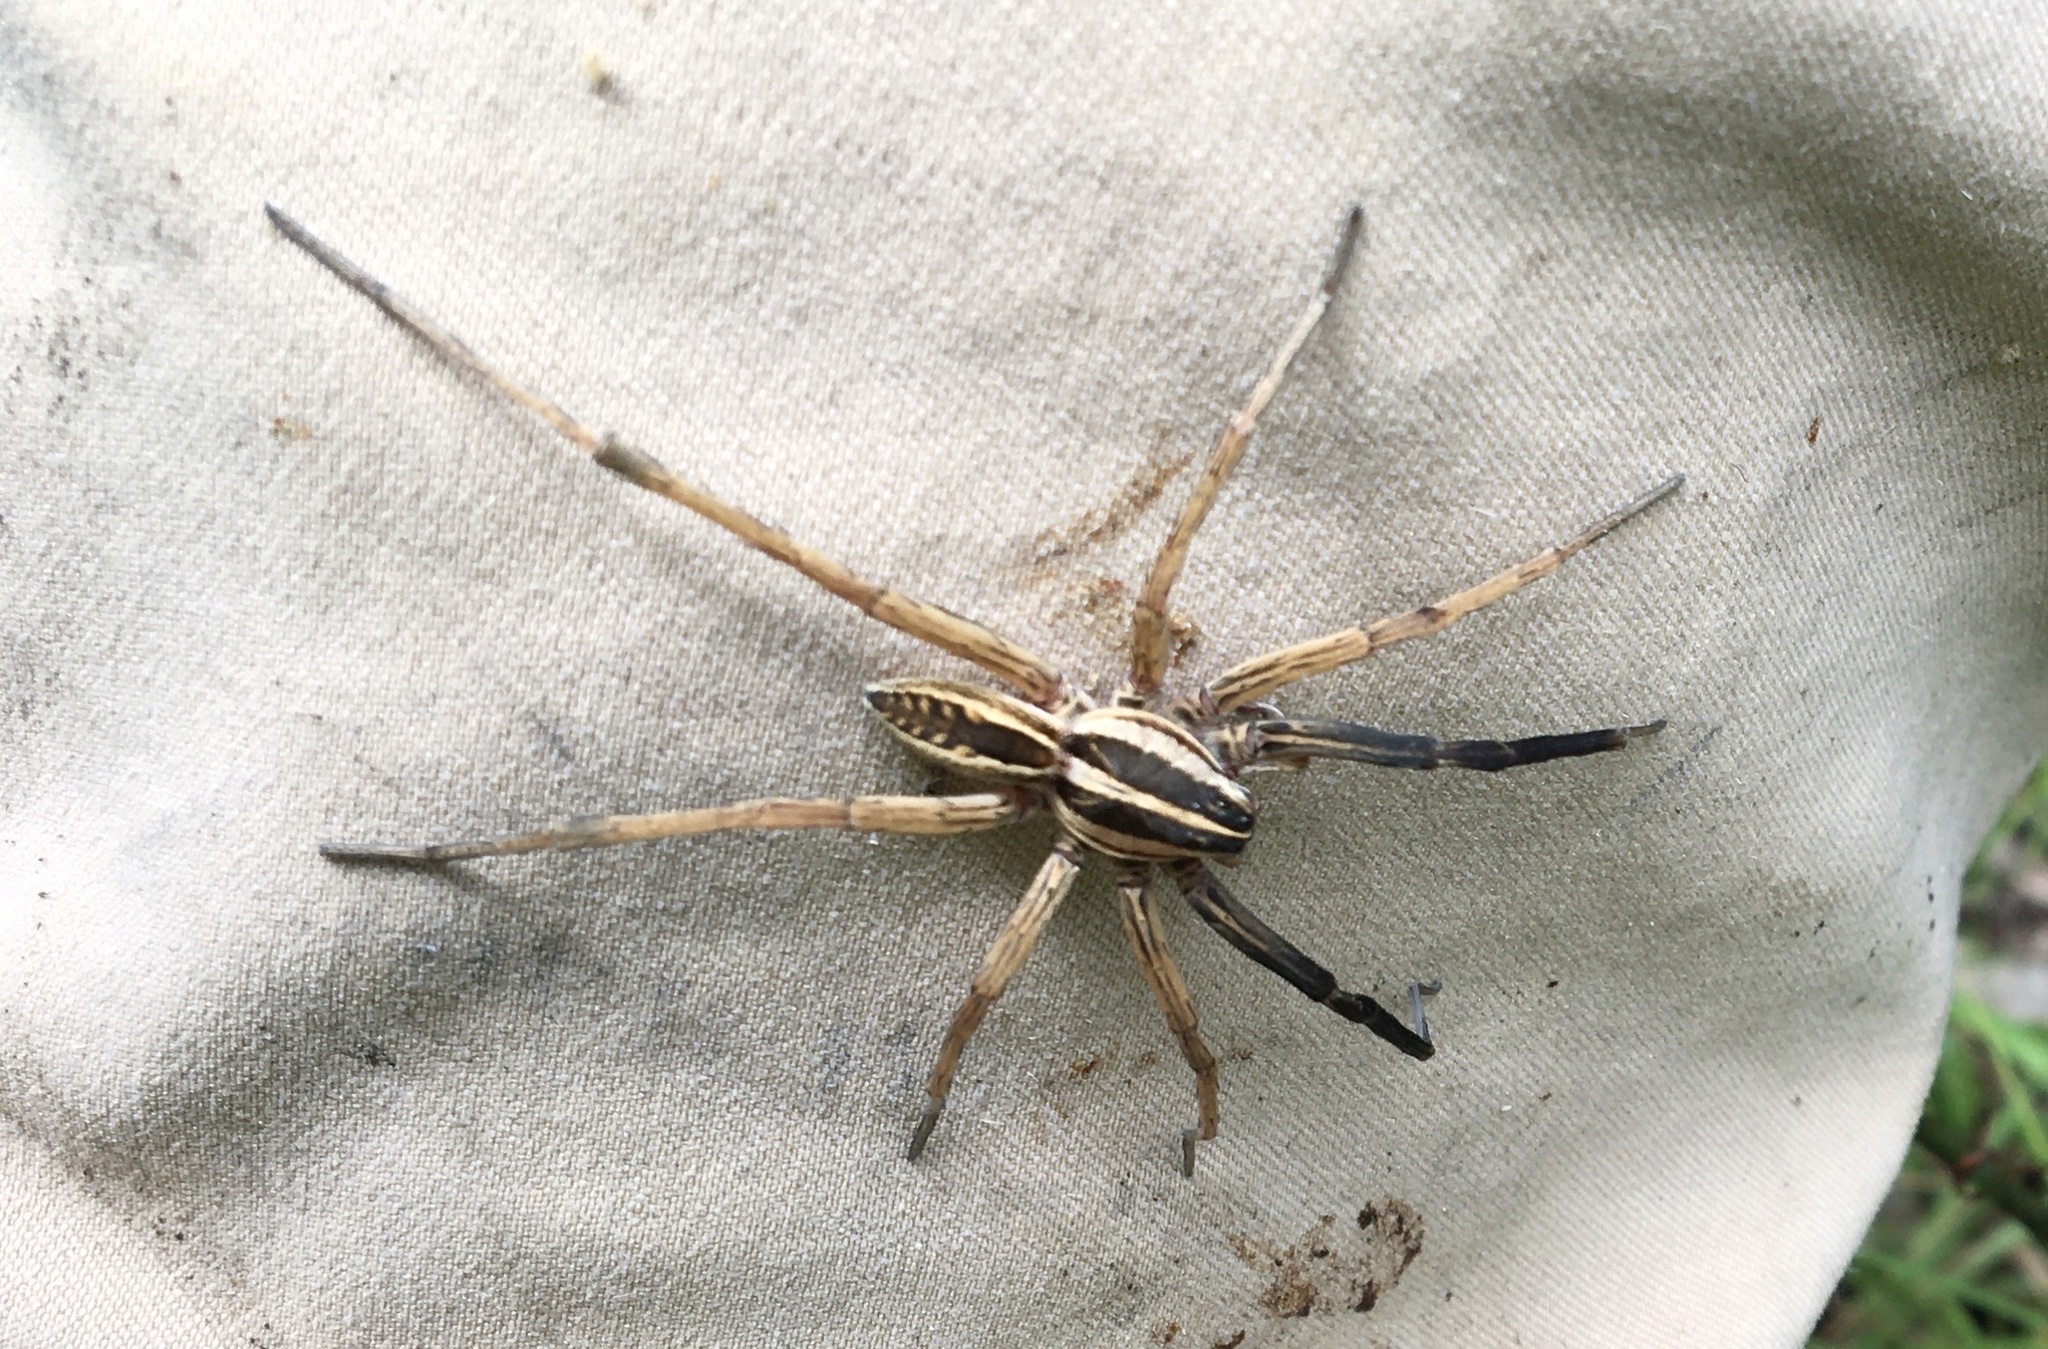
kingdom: Animalia
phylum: Arthropoda
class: Arachnida
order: Araneae
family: Lycosidae
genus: Rabidosa
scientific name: Rabidosa rabida
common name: Rabid wolf spider
